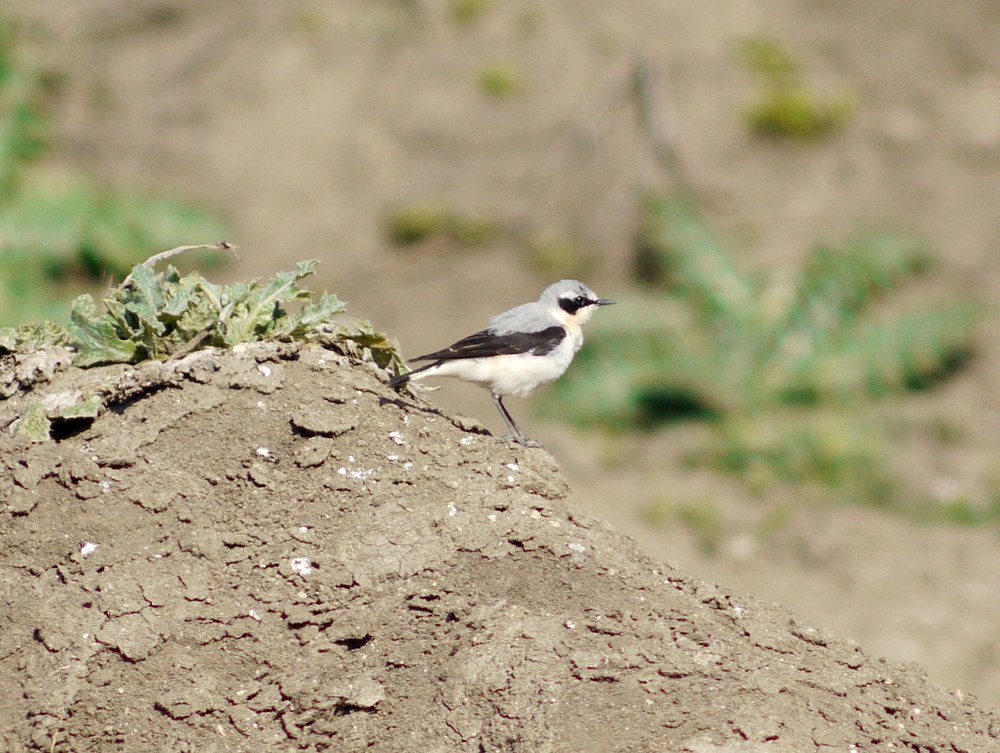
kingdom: Animalia
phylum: Chordata
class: Aves
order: Passeriformes
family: Muscicapidae
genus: Oenanthe
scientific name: Oenanthe oenanthe
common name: Northern wheatear
